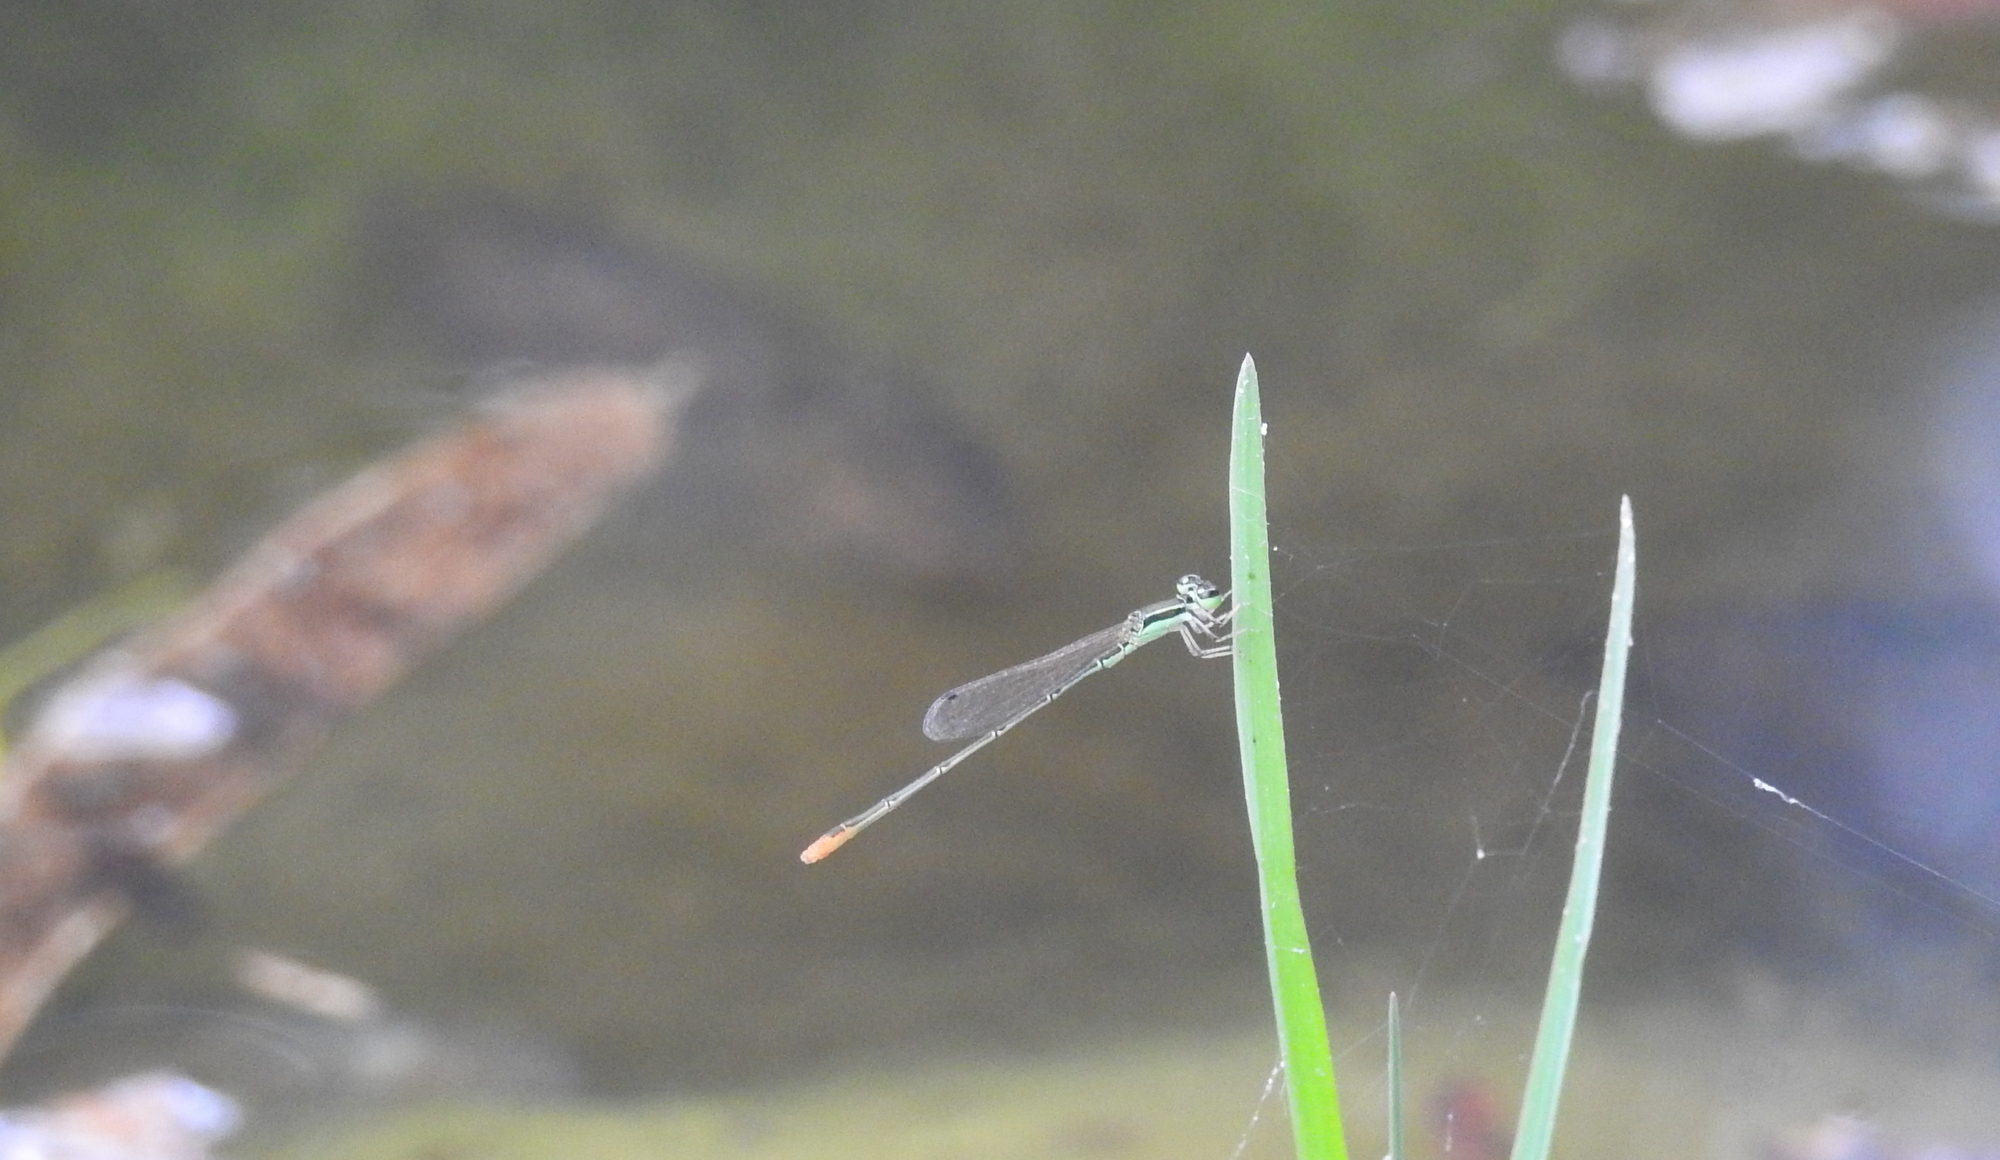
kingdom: Animalia
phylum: Arthropoda
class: Insecta
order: Odonata
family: Coenagrionidae
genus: Agriocnemis
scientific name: Agriocnemis pygmaea
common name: Pygmy wisp
